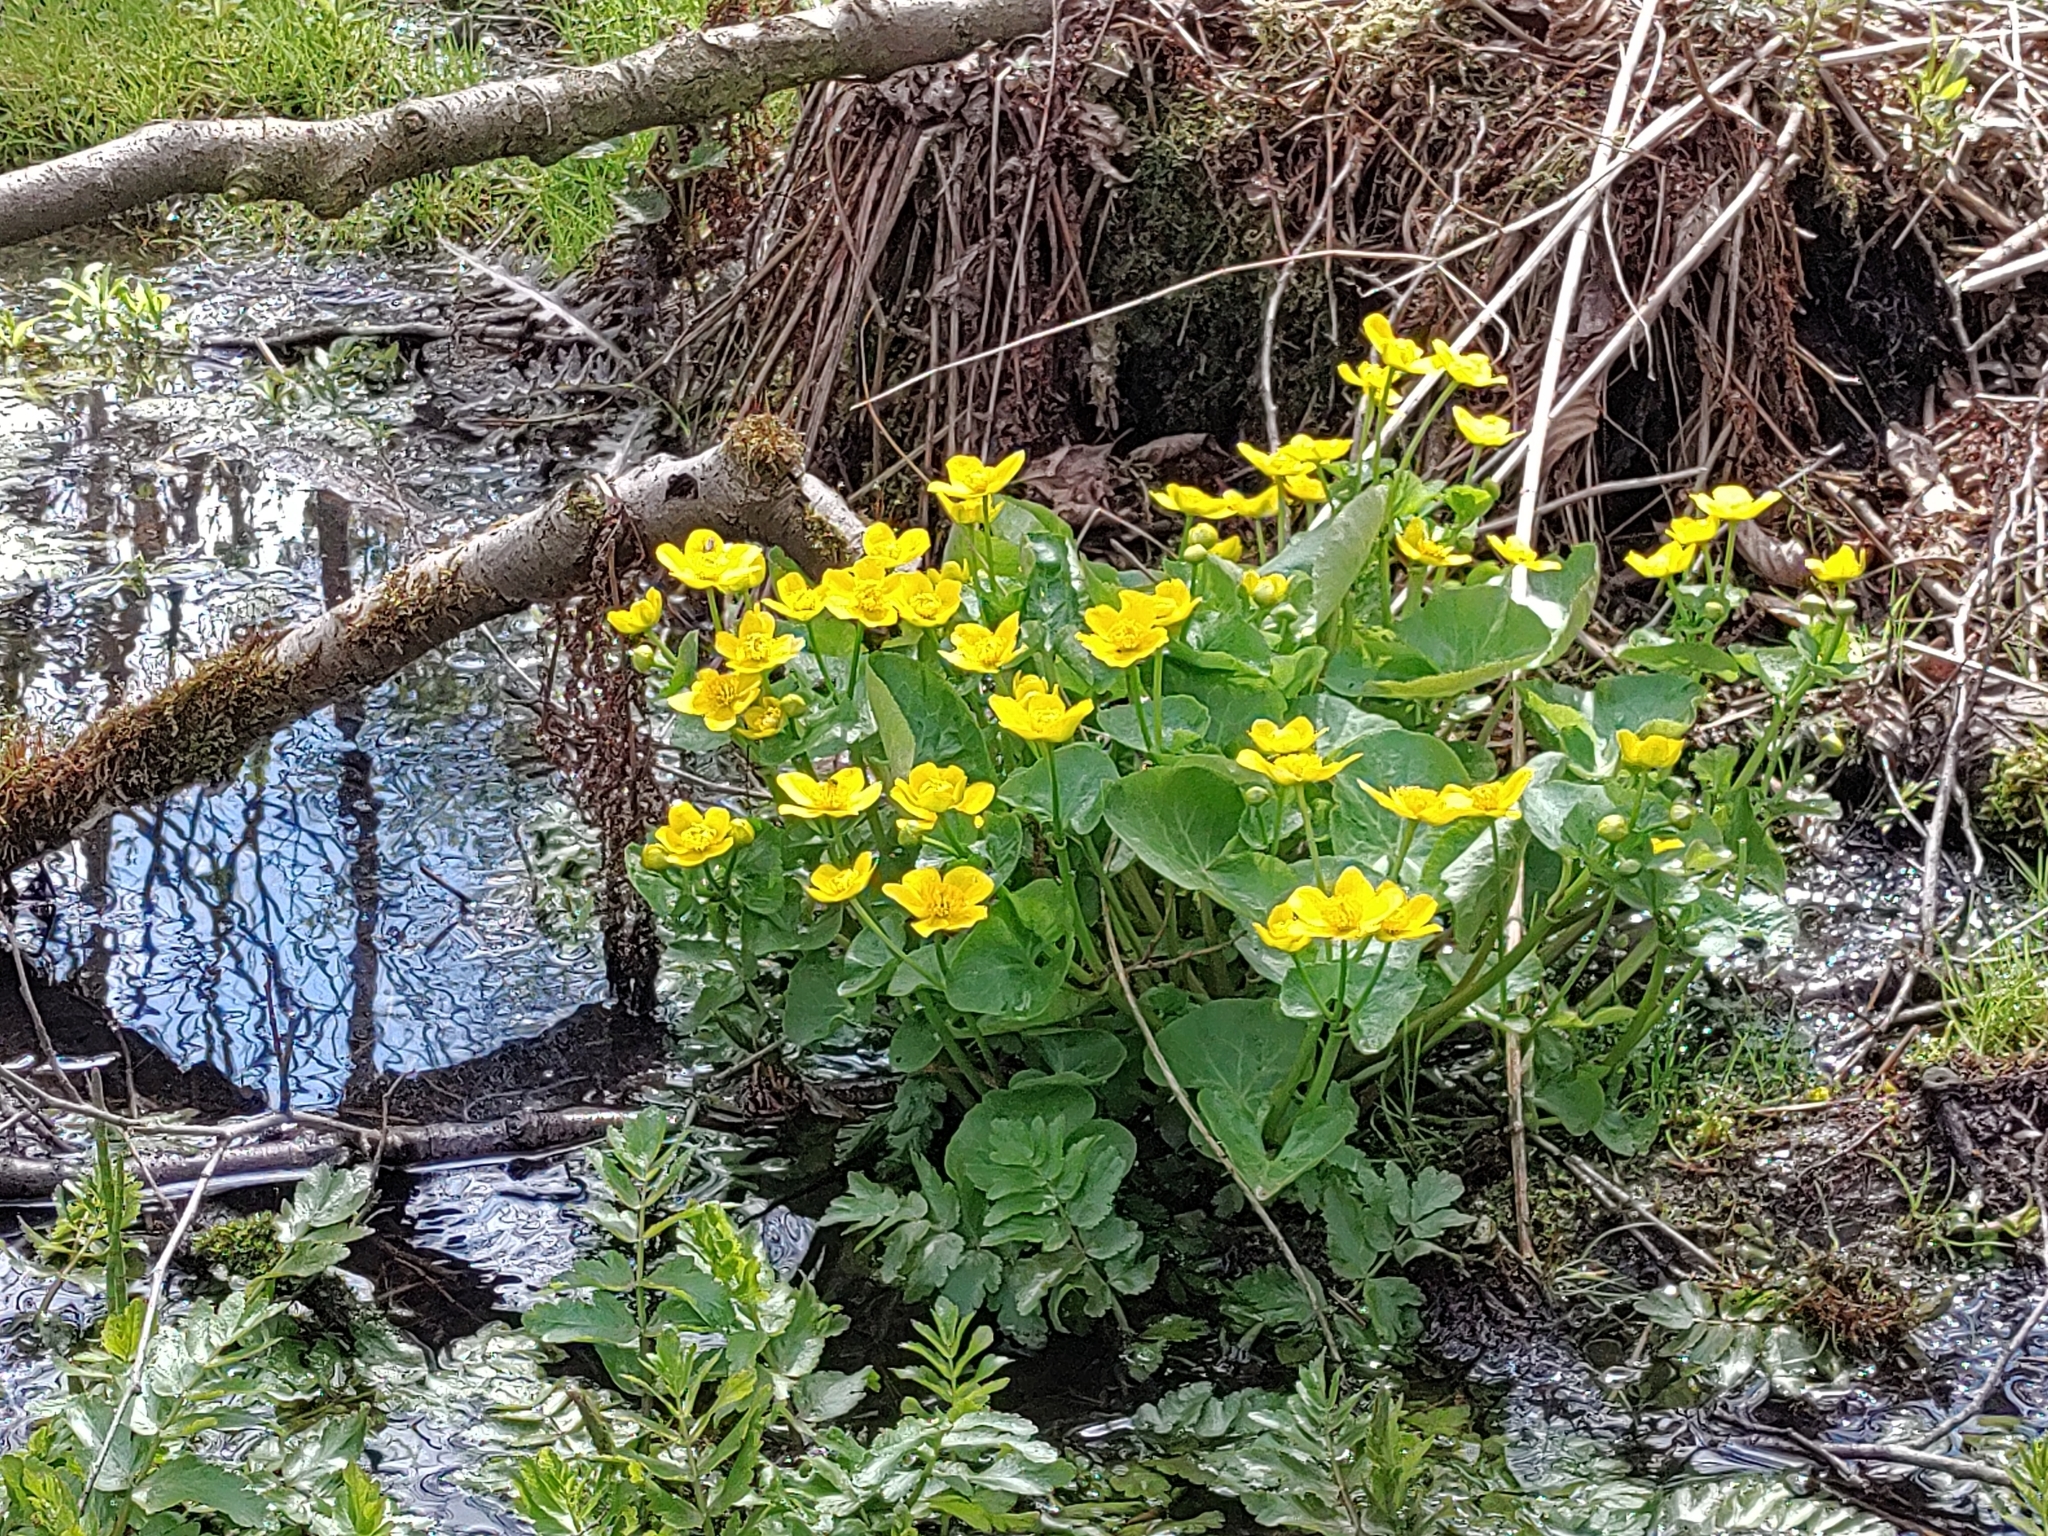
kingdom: Plantae
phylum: Tracheophyta
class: Magnoliopsida
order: Ranunculales
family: Ranunculaceae
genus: Caltha
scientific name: Caltha palustris
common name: Marsh marigold
